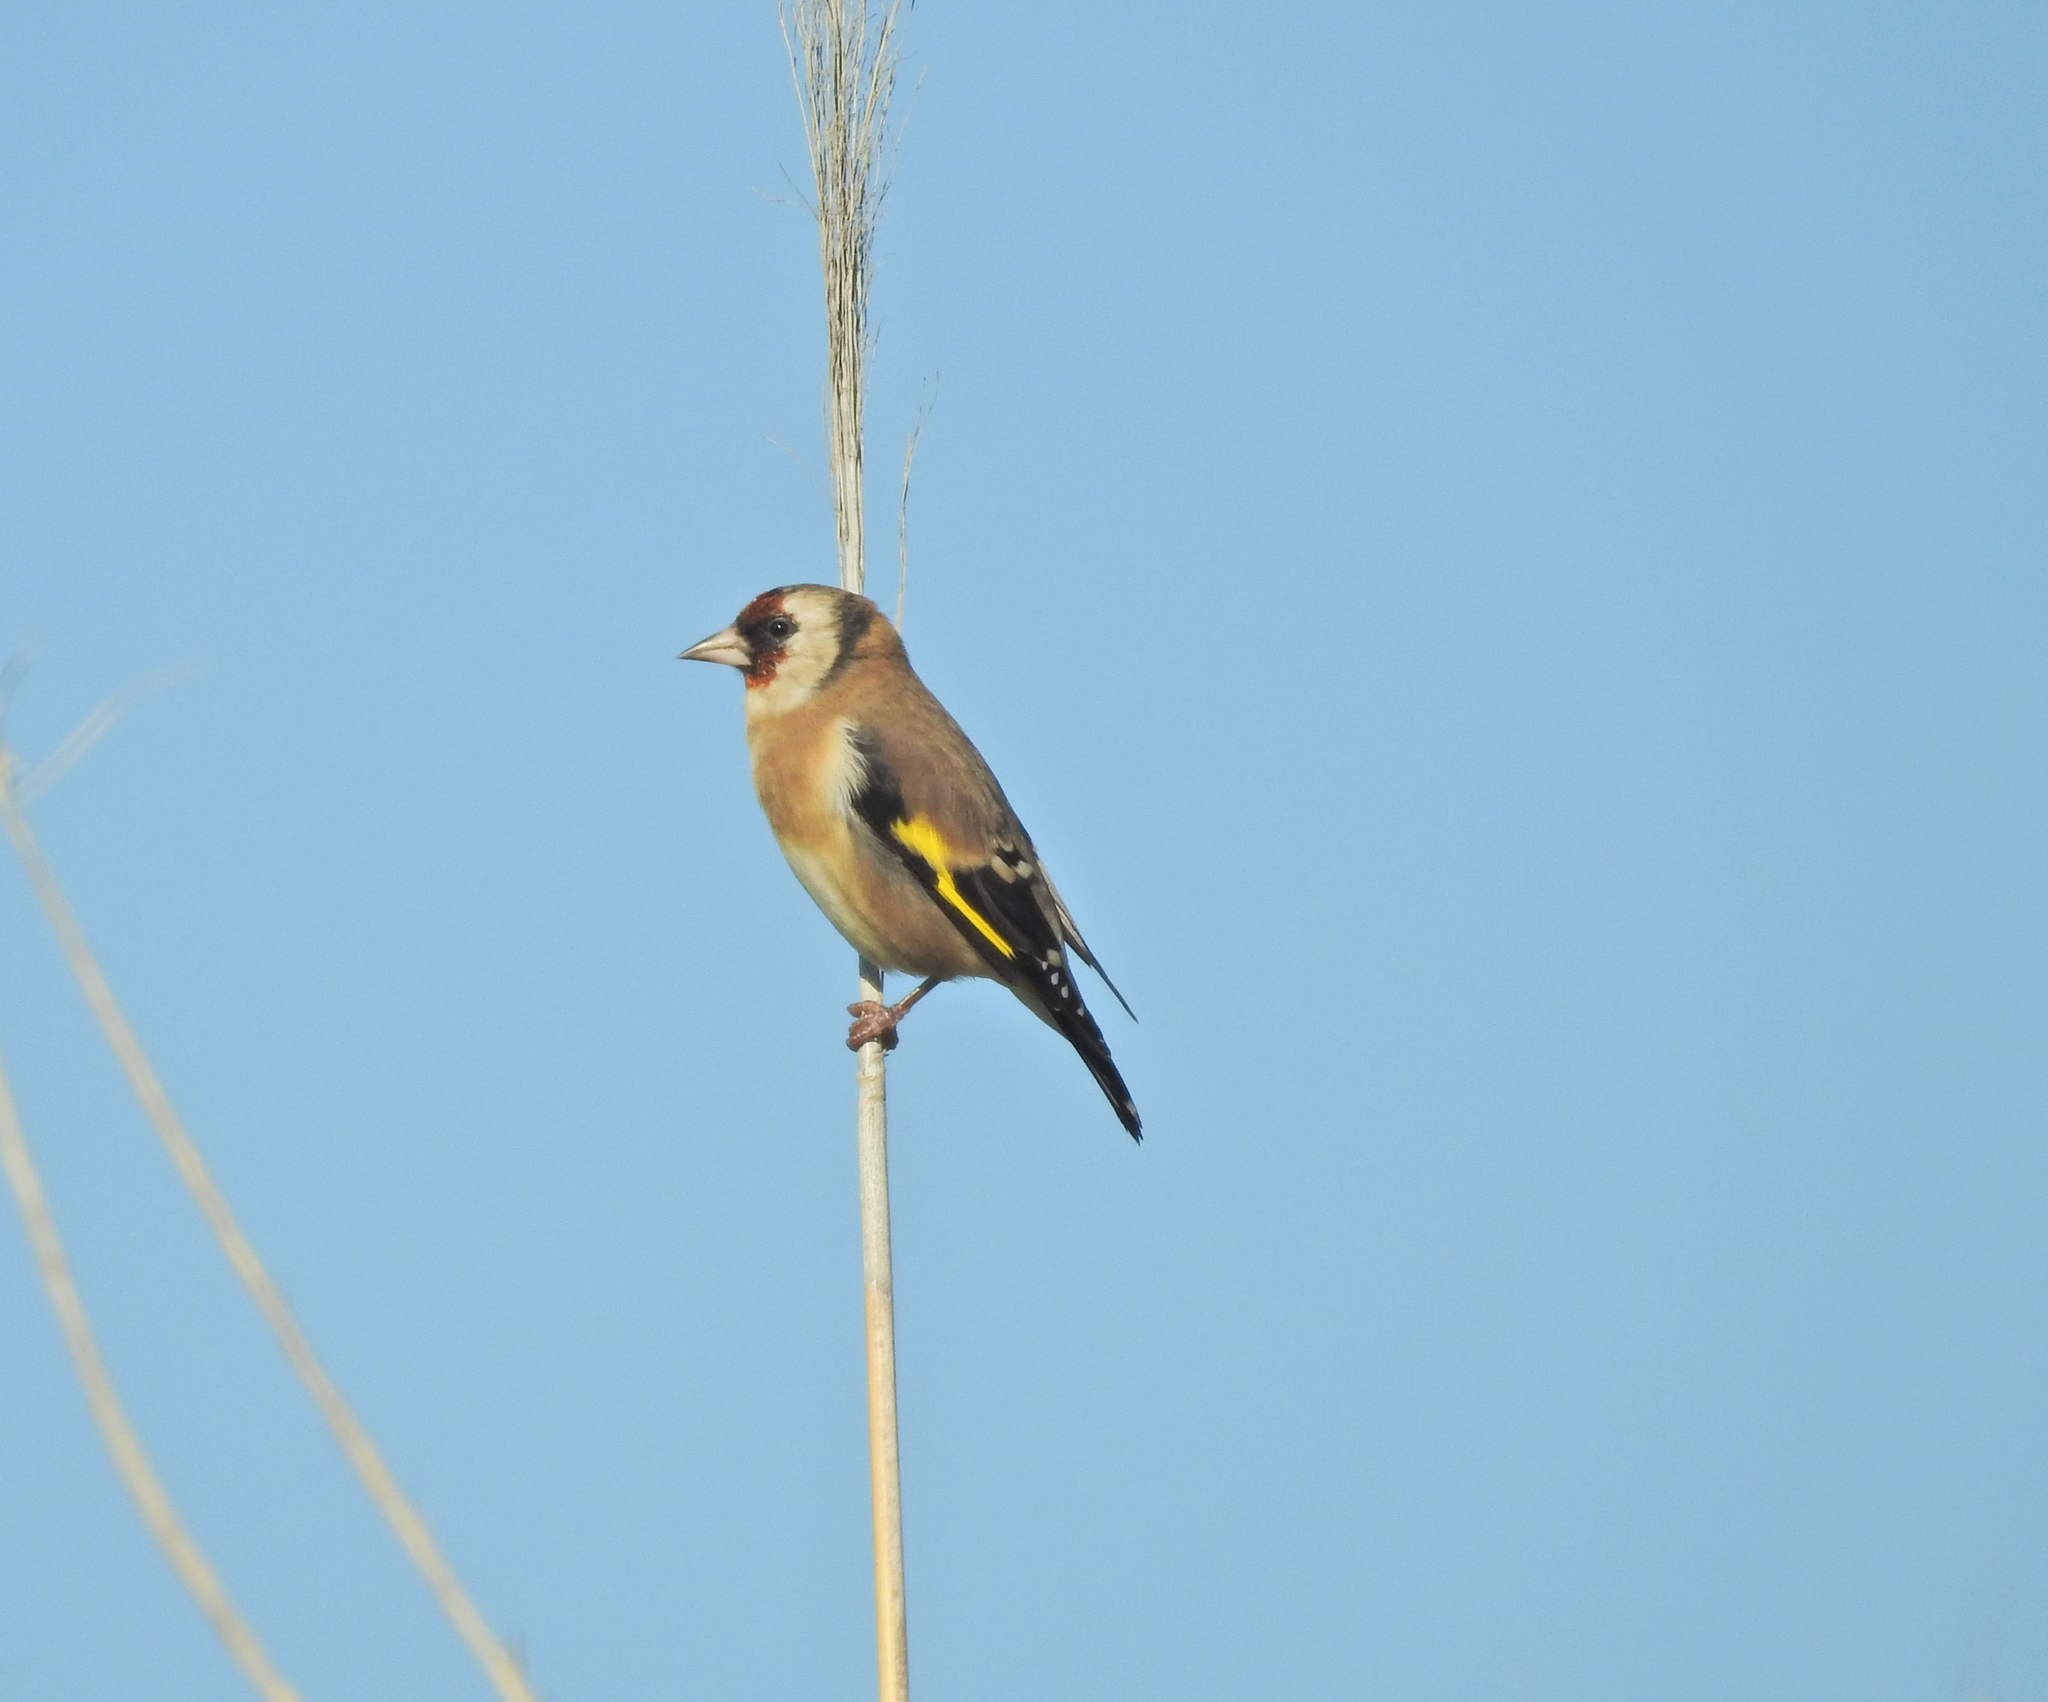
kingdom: Animalia
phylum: Chordata
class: Aves
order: Passeriformes
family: Fringillidae
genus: Carduelis
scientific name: Carduelis carduelis
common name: European goldfinch
